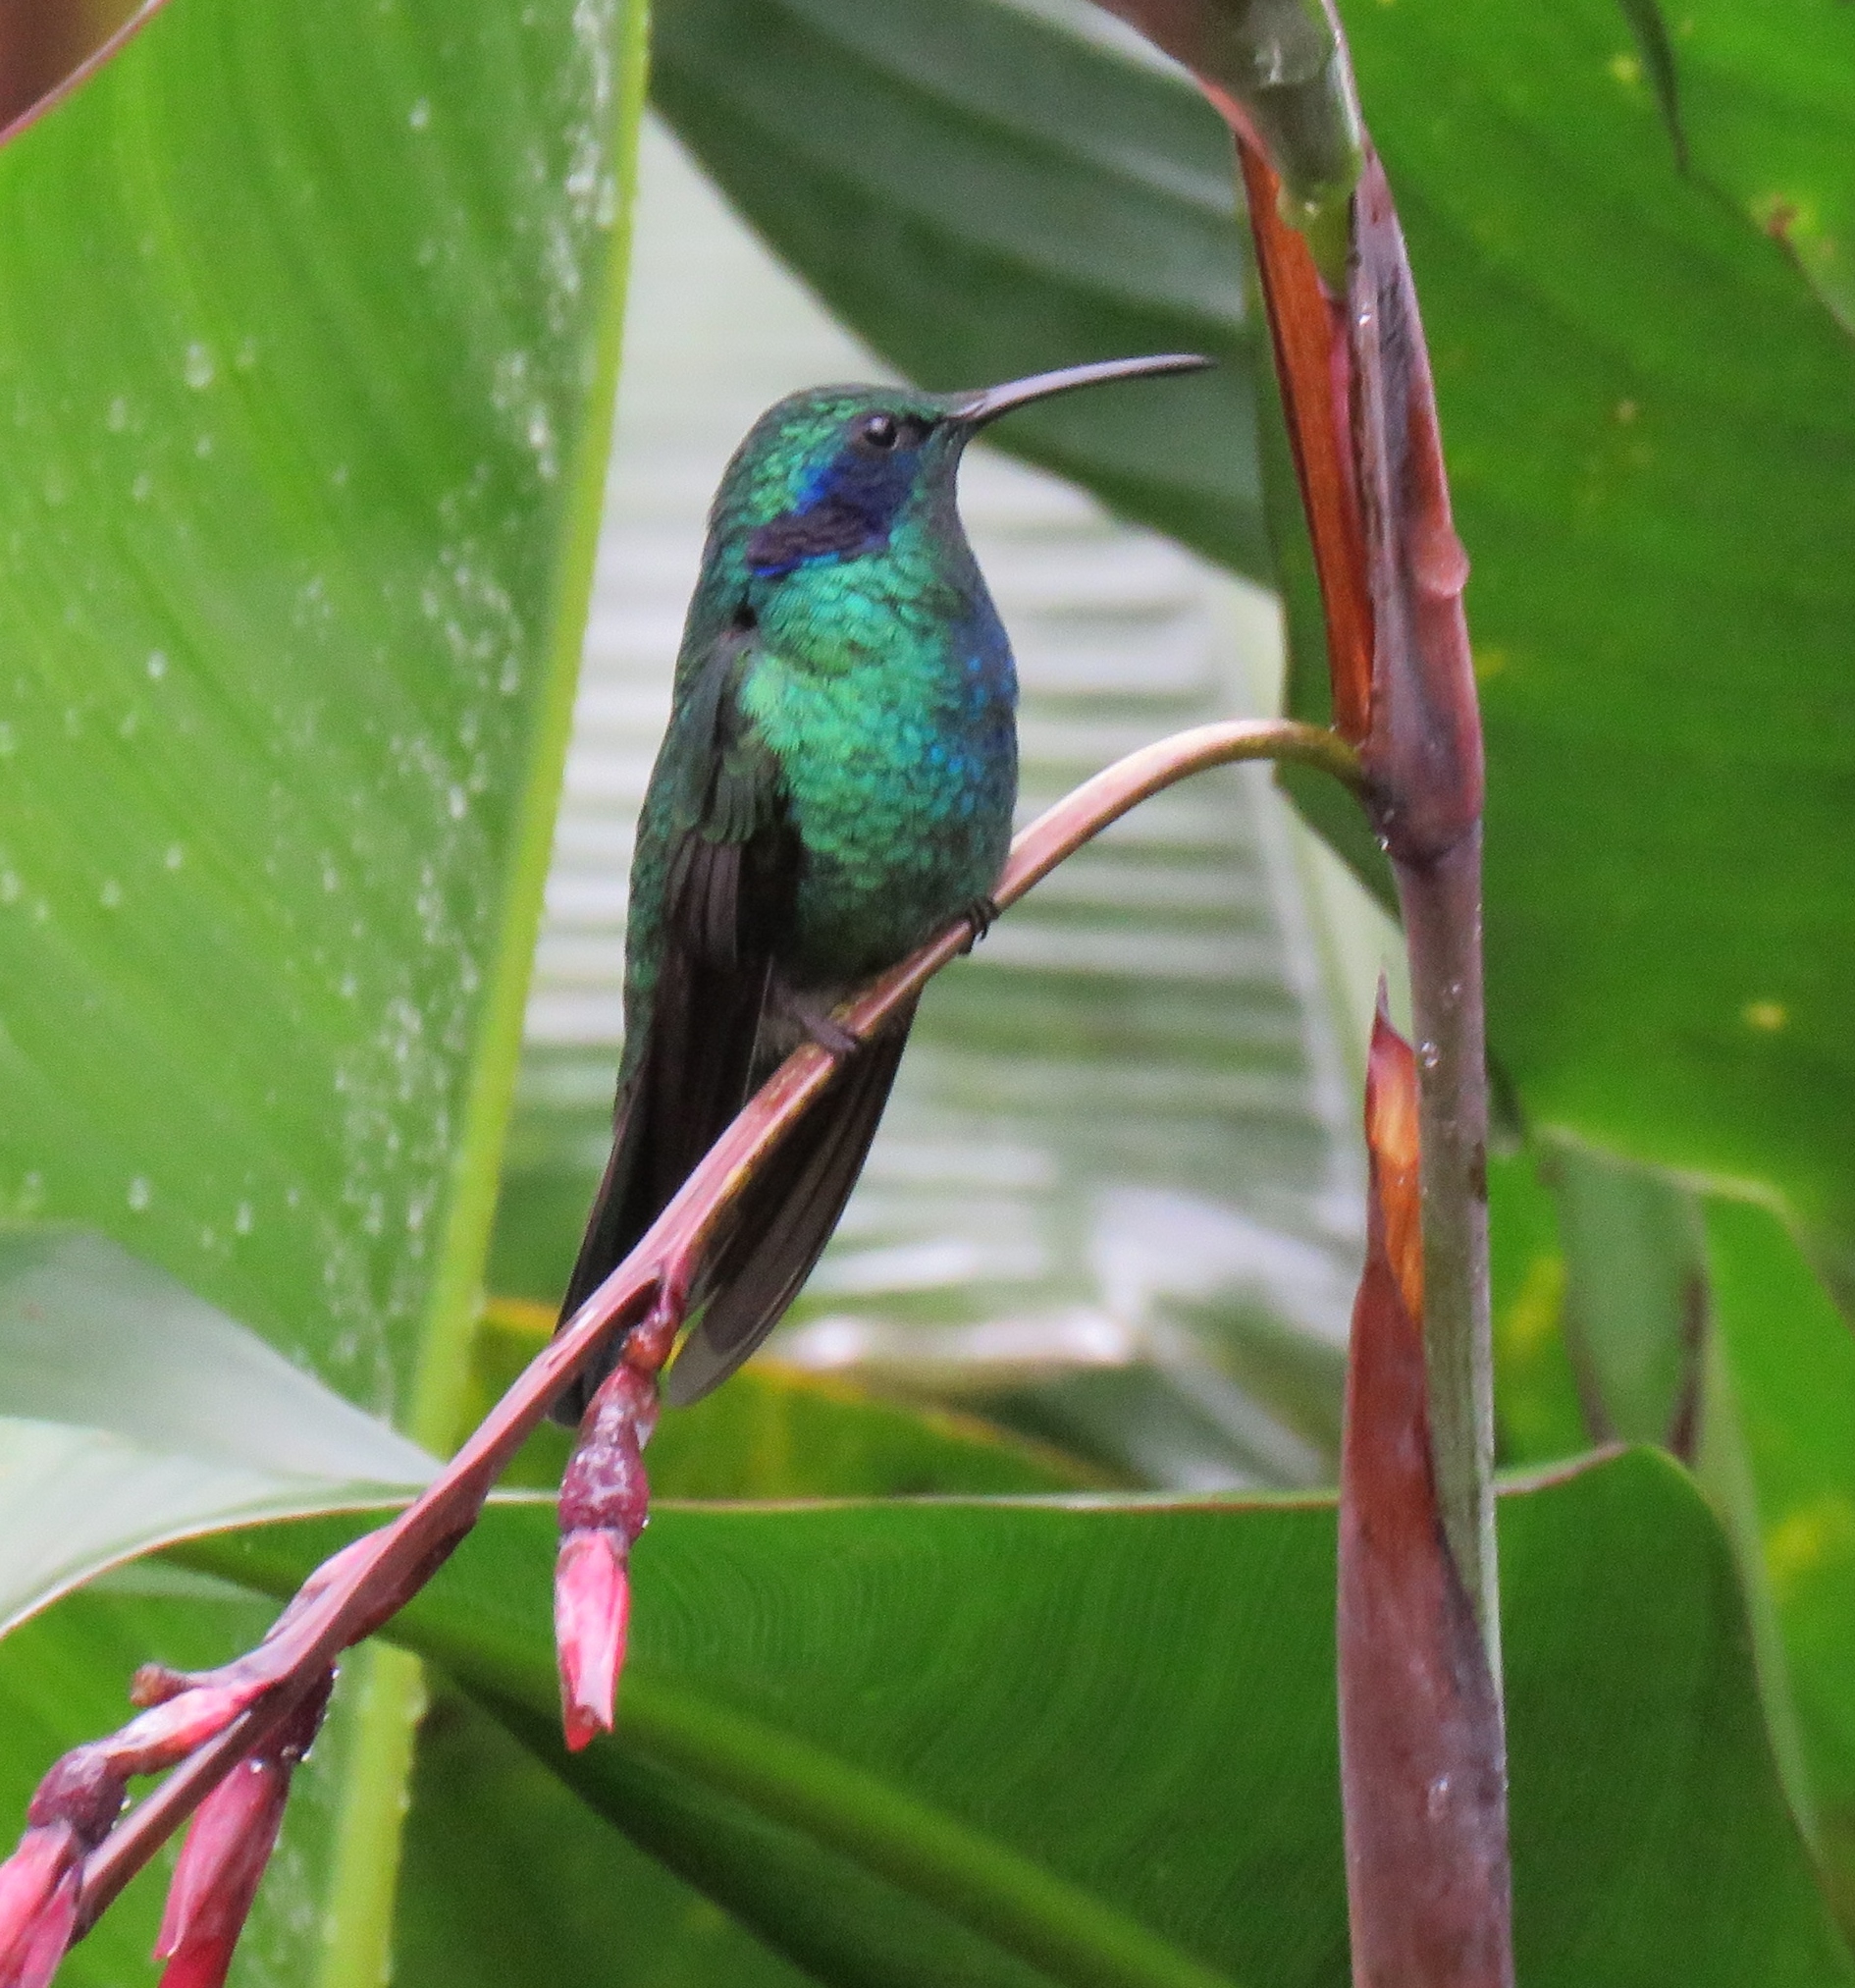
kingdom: Animalia
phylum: Chordata
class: Aves
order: Apodiformes
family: Trochilidae
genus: Colibri
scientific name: Colibri cyanotus
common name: Lesser violetear
